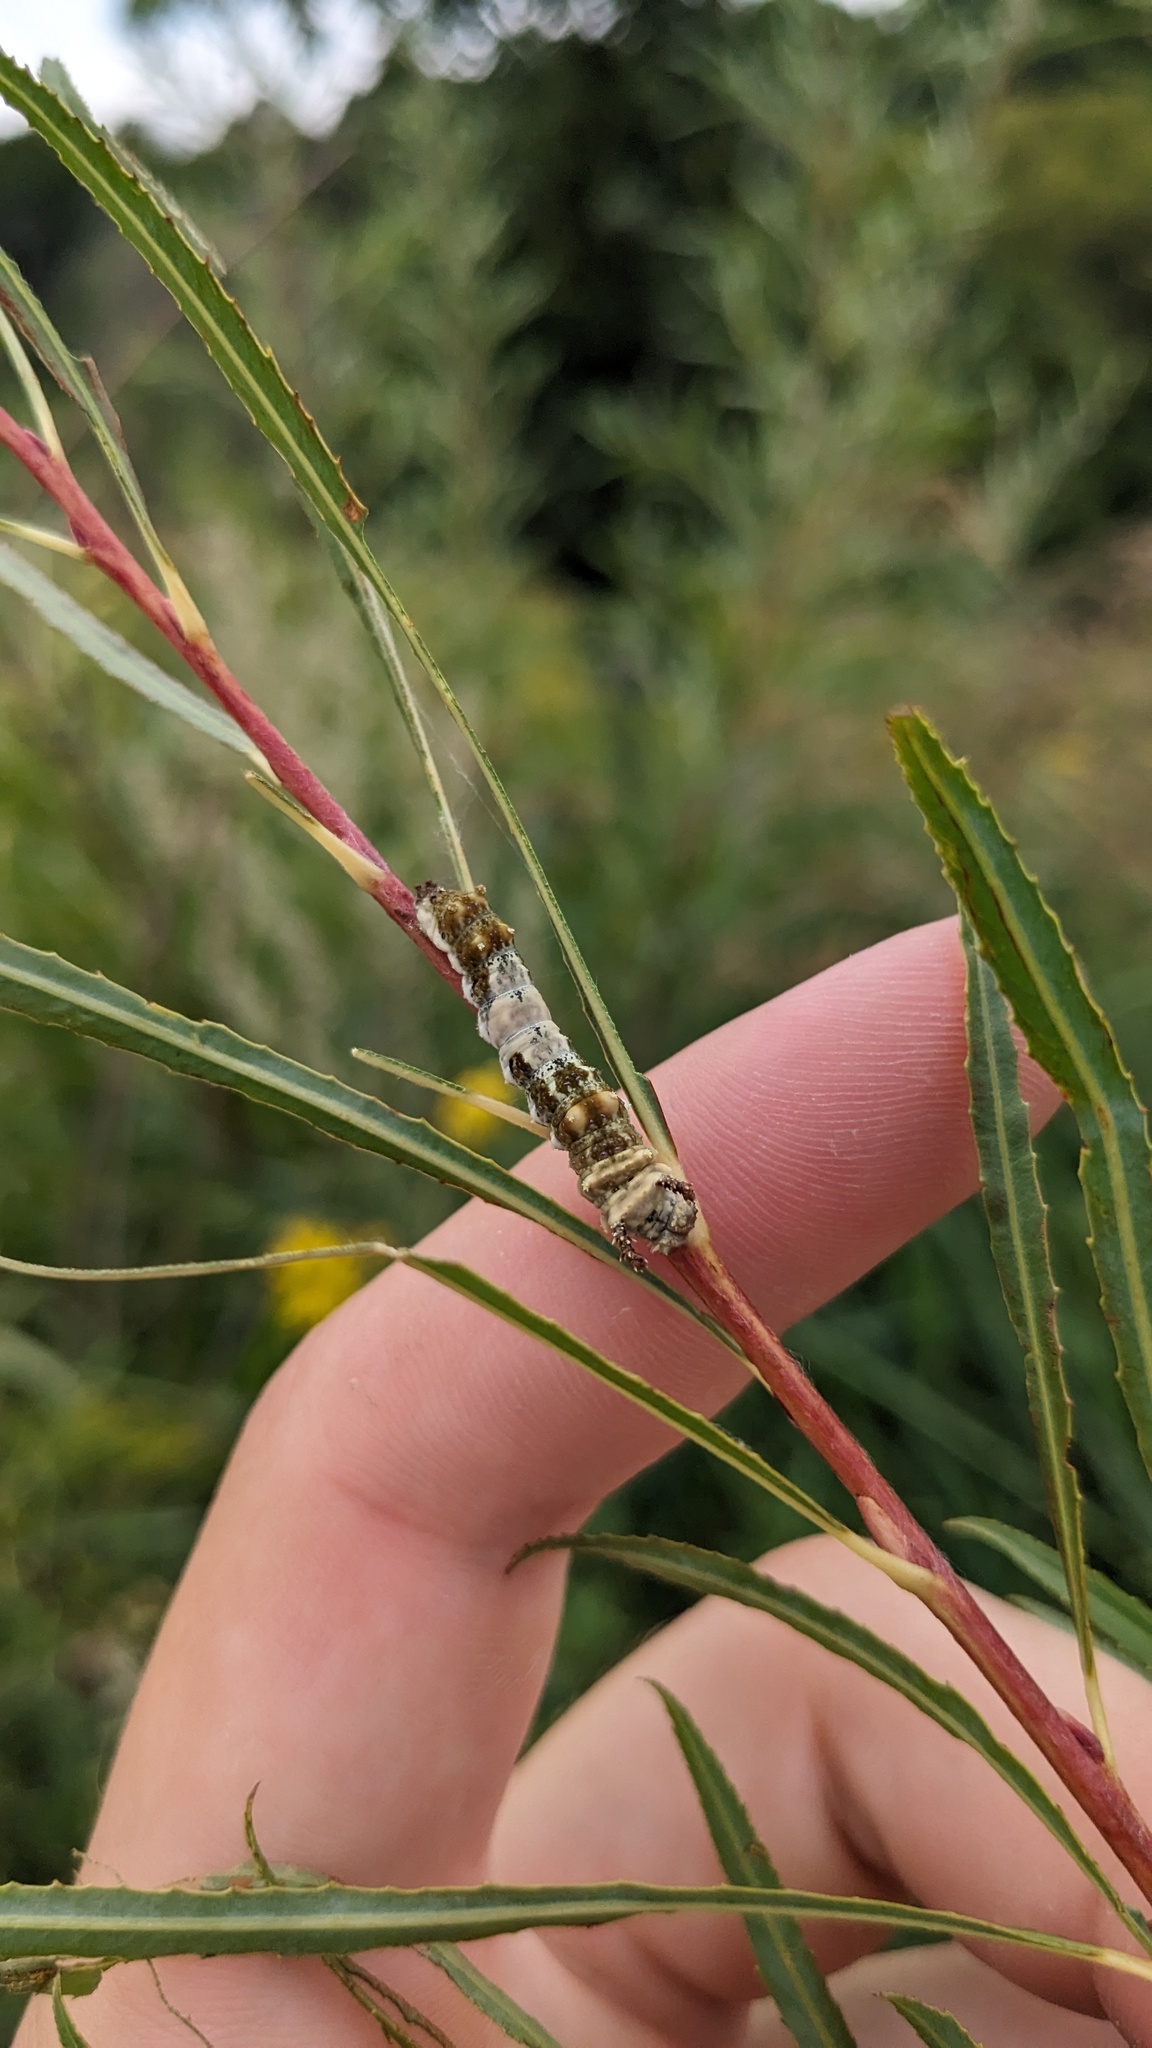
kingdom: Animalia
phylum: Arthropoda
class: Insecta
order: Lepidoptera
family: Nymphalidae
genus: Limenitis
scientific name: Limenitis archippus
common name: Viceroy
